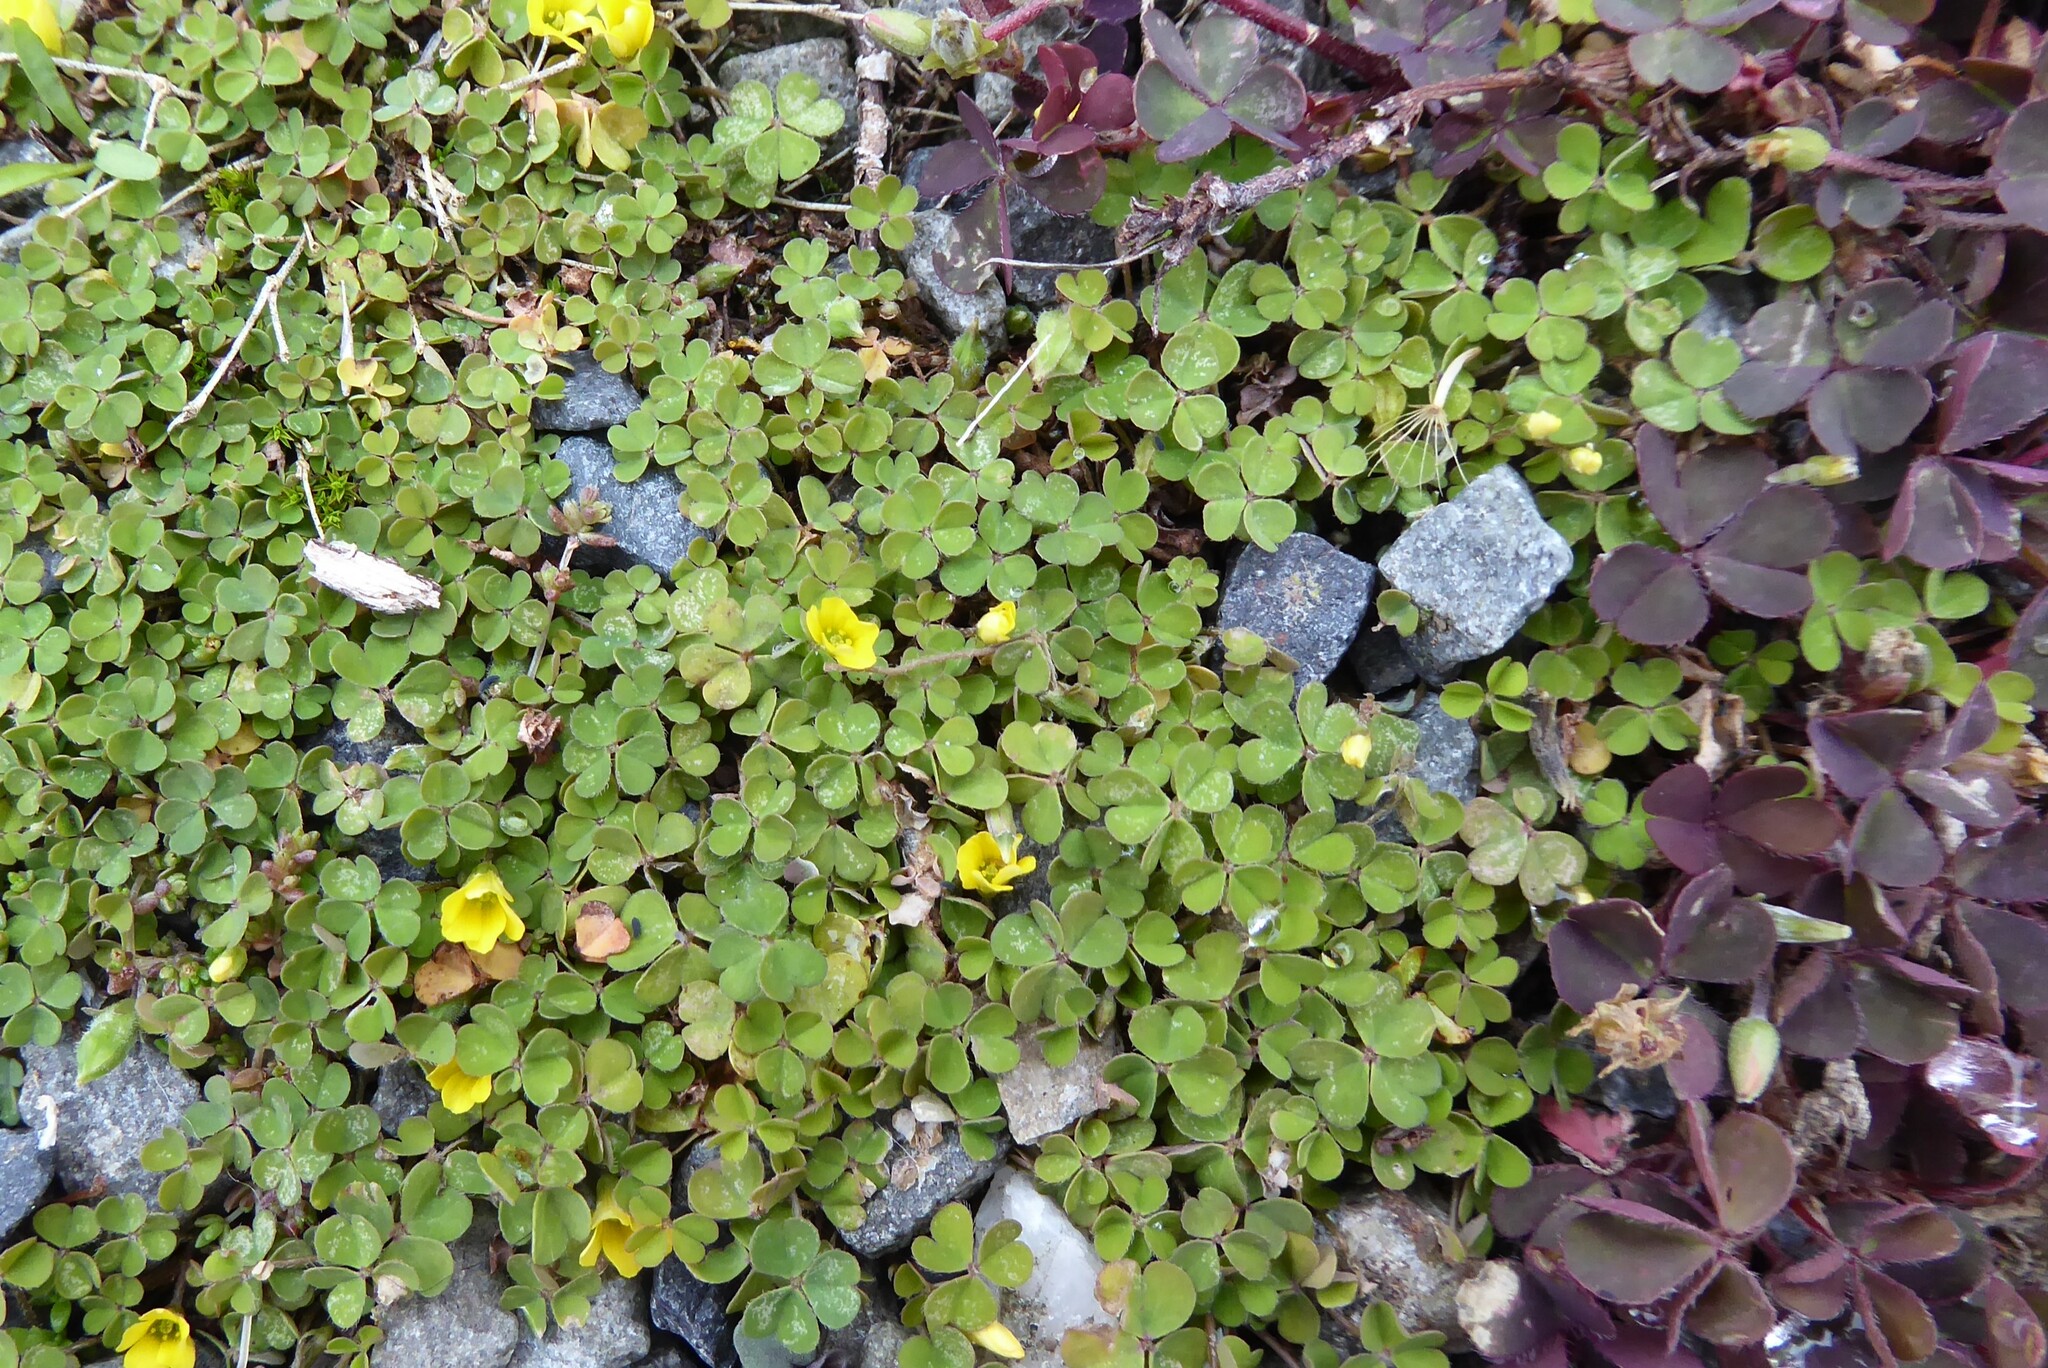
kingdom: Plantae
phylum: Tracheophyta
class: Magnoliopsida
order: Oxalidales
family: Oxalidaceae
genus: Oxalis
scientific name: Oxalis exilis
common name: Least yellow-sorrel
